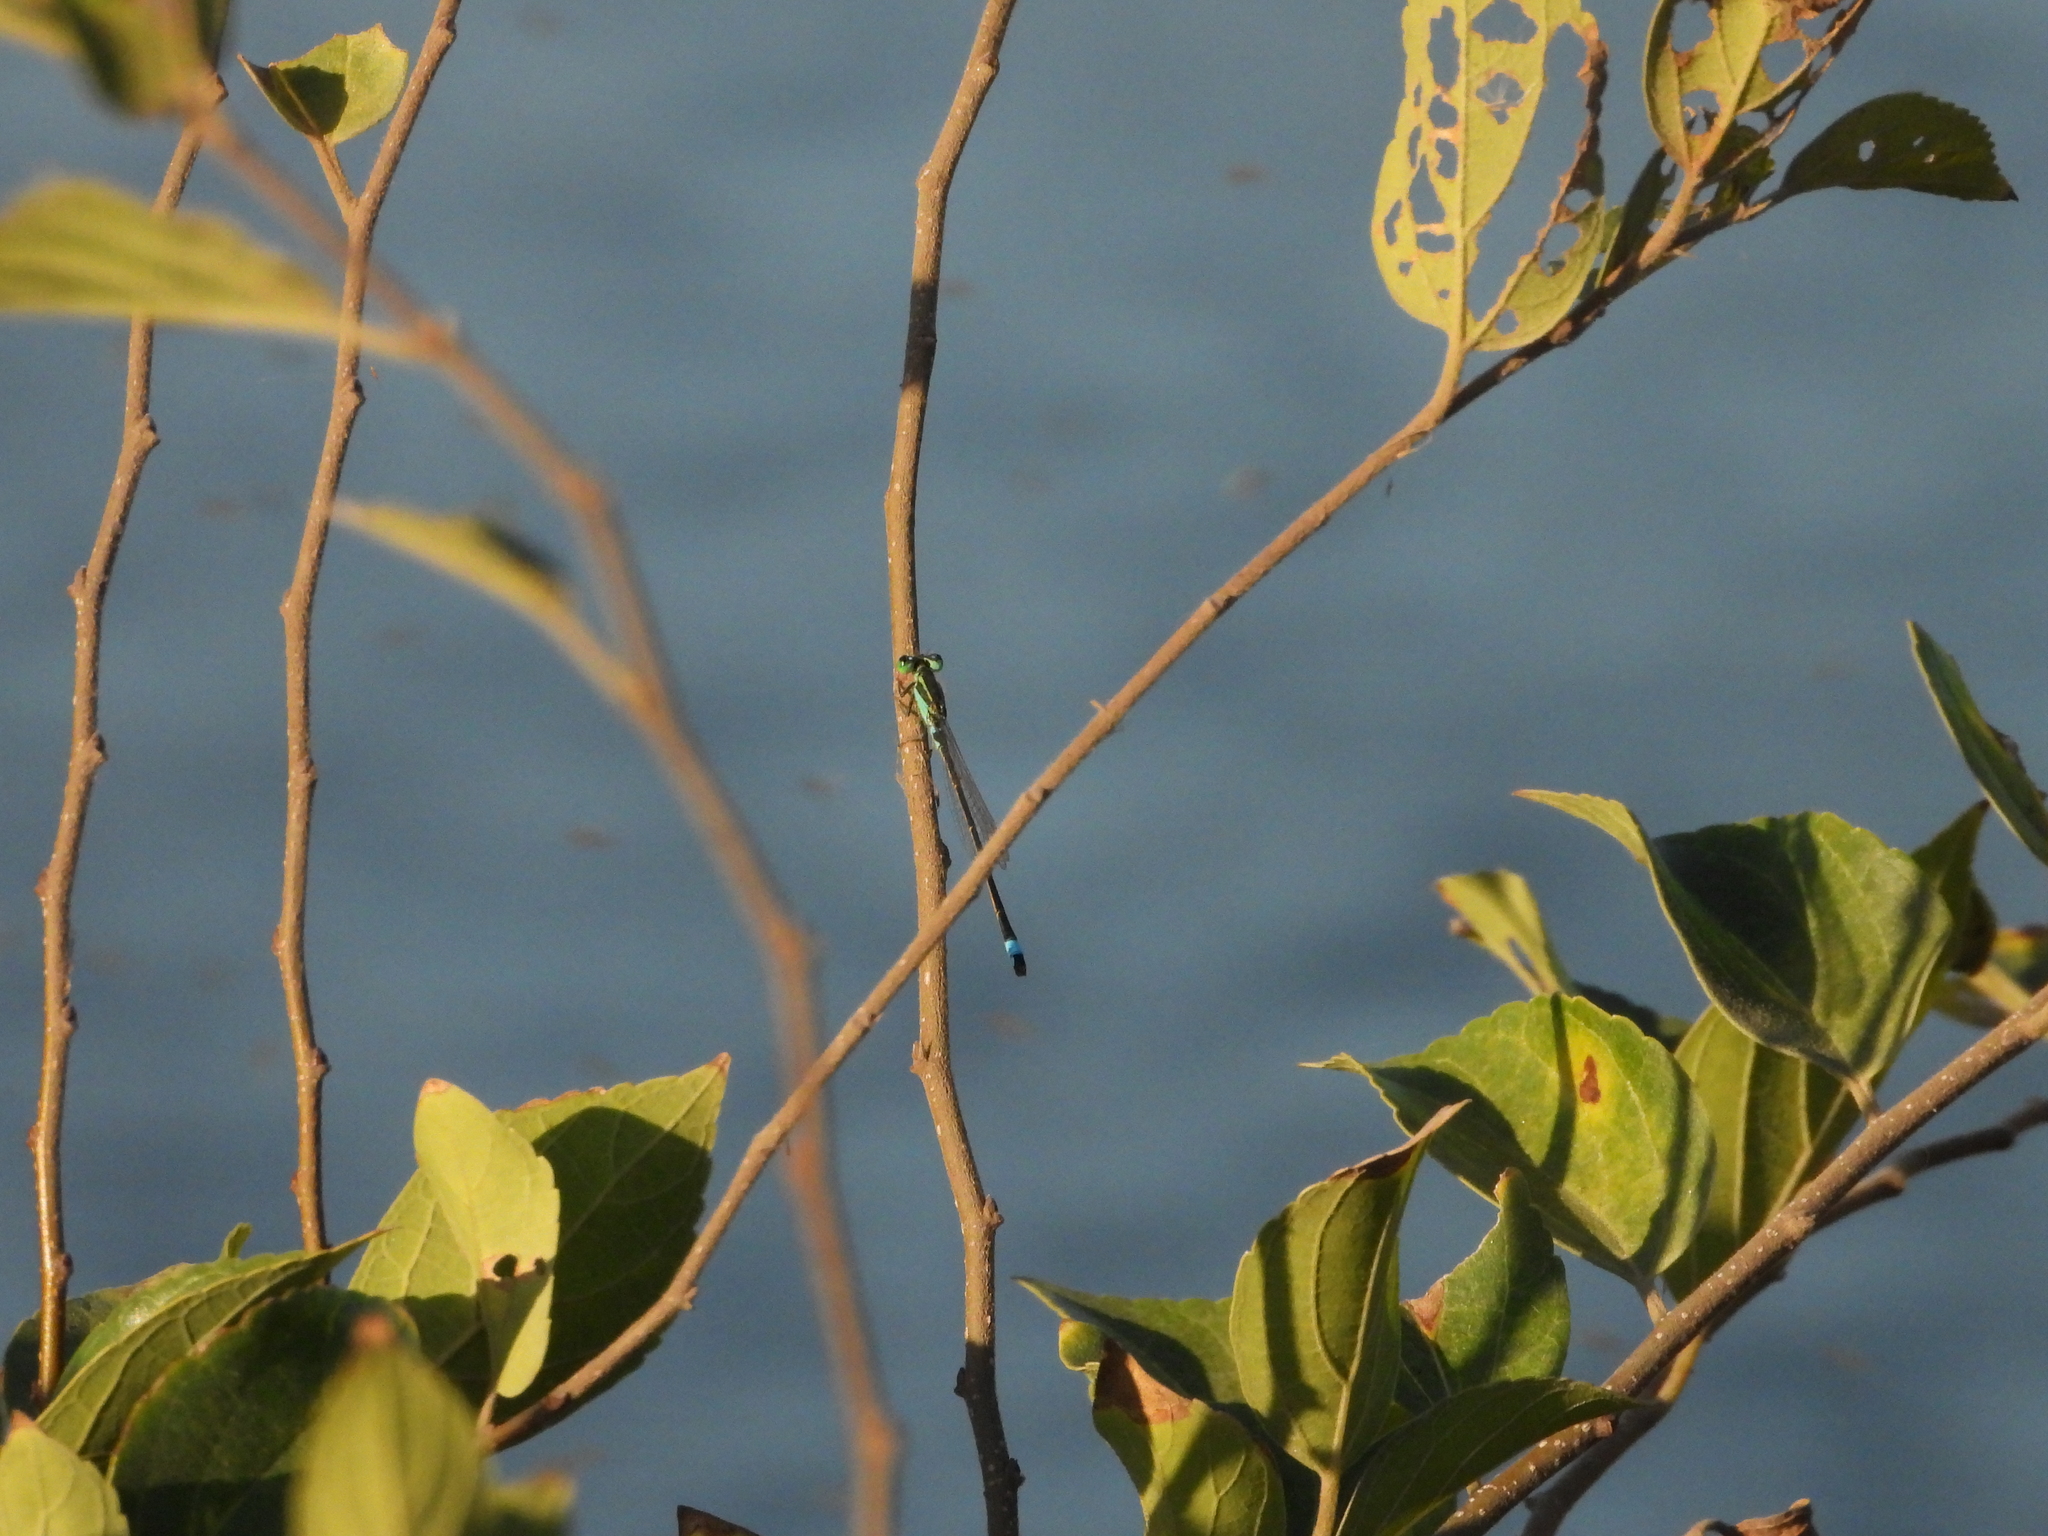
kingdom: Animalia
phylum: Arthropoda
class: Insecta
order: Odonata
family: Coenagrionidae
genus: Ischnura
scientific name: Ischnura senegalensis
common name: Tropical bluetail
